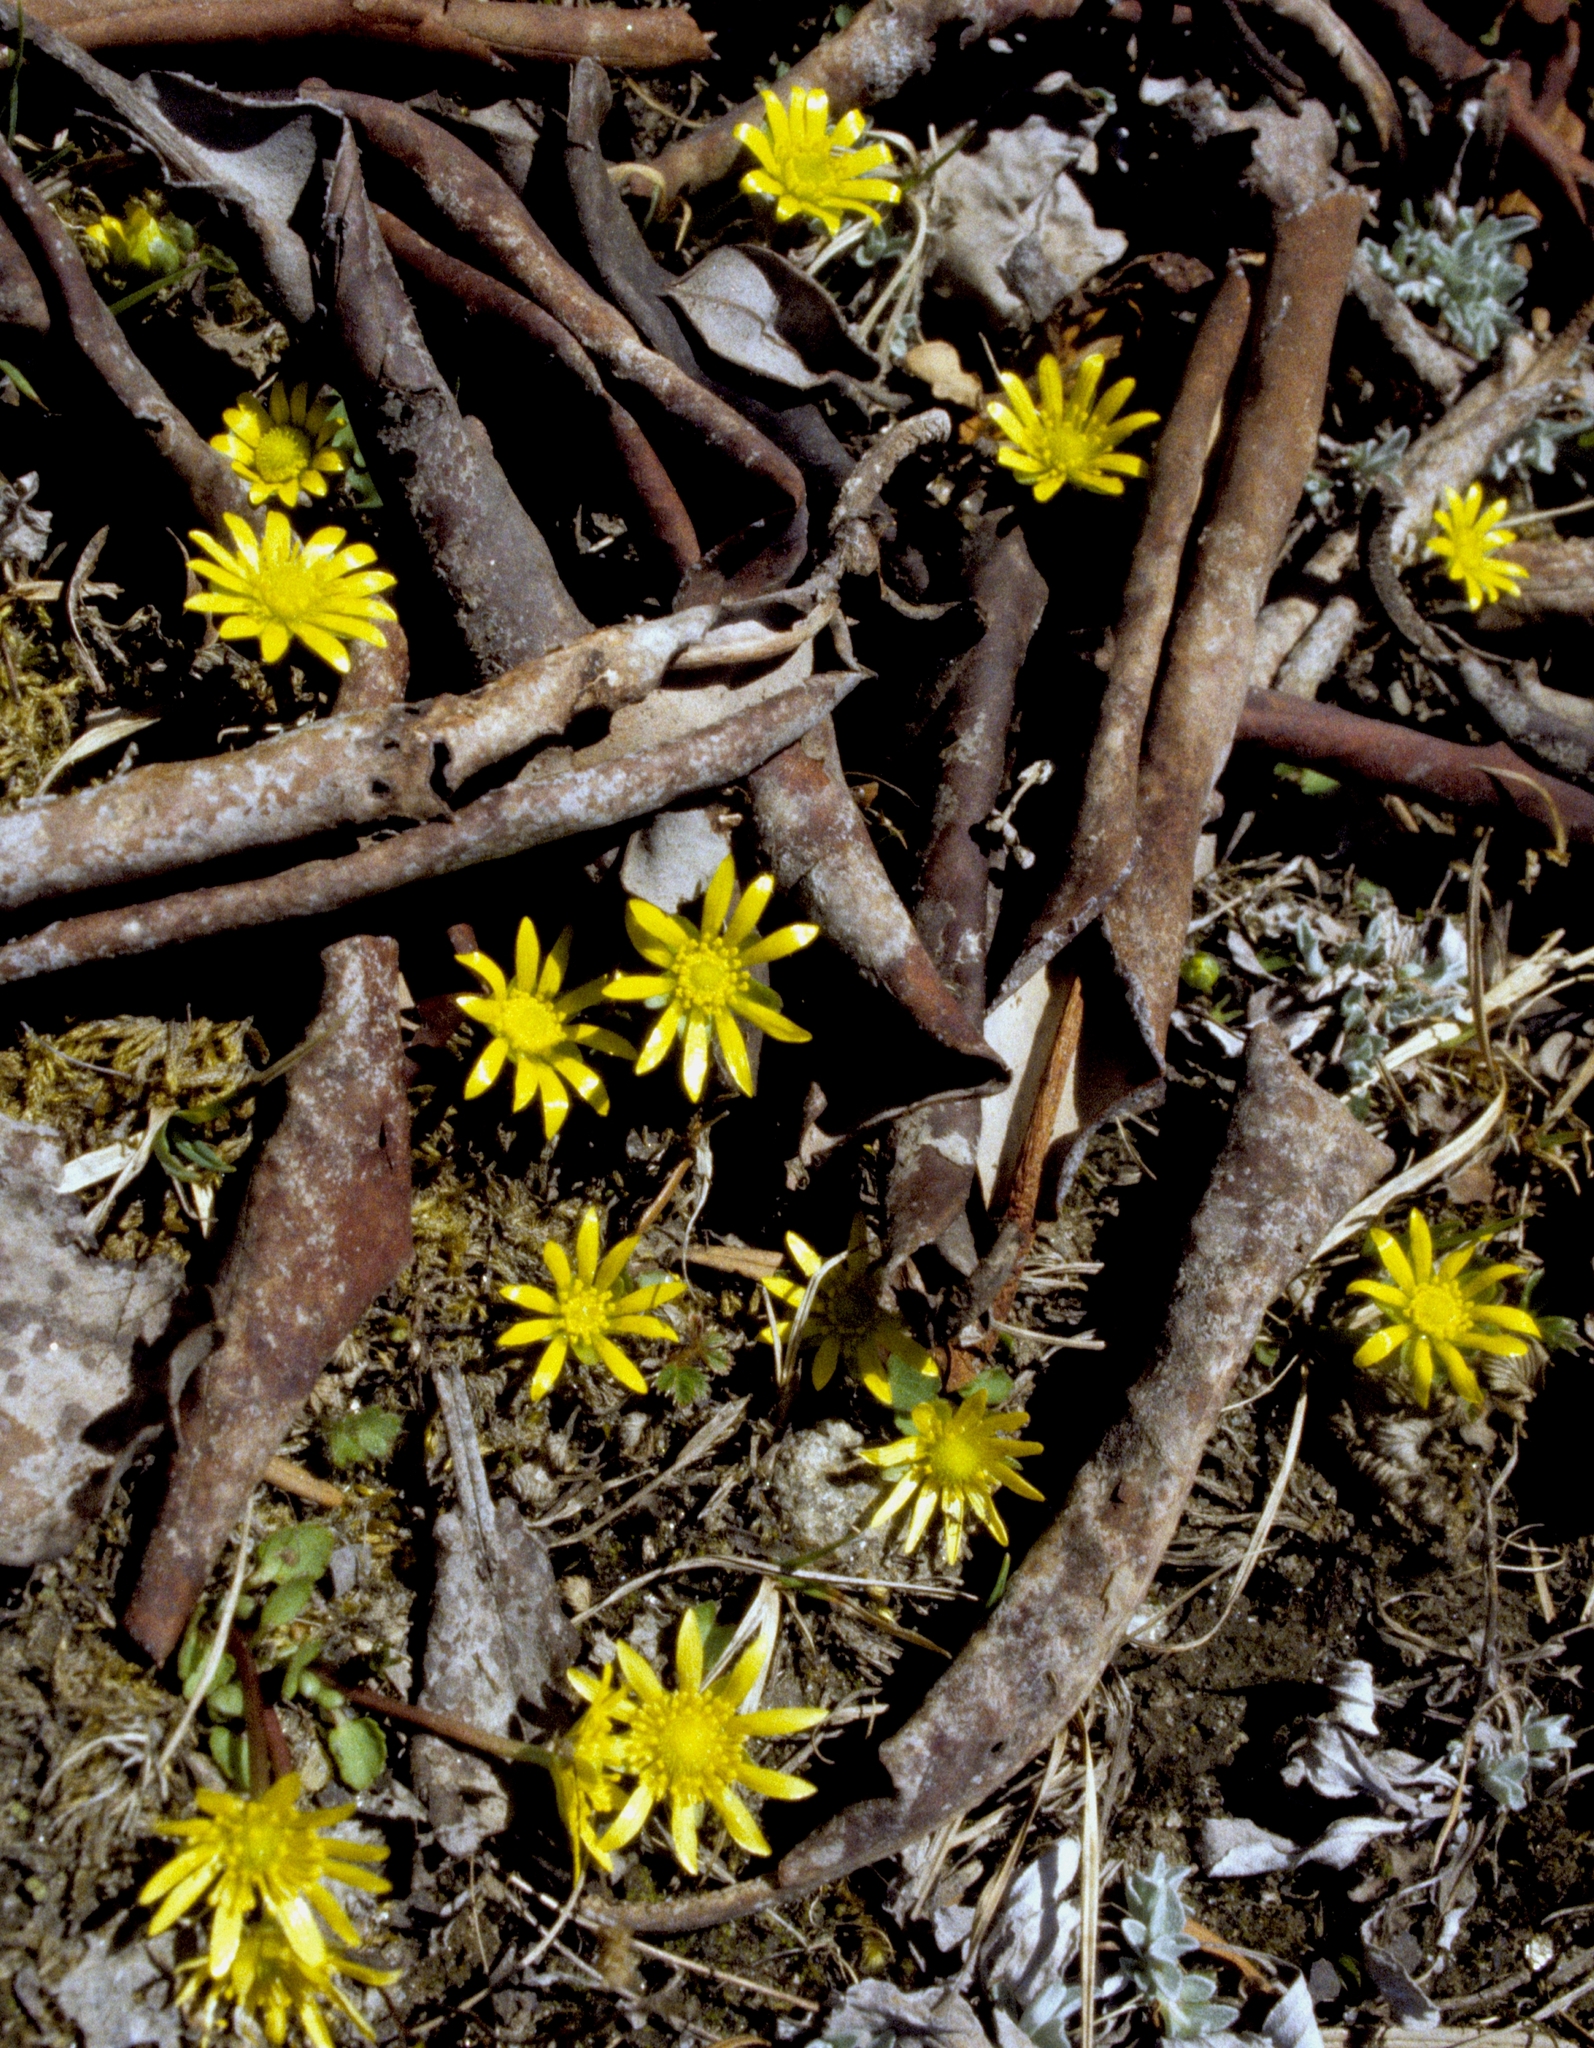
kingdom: Plantae
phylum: Tracheophyta
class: Magnoliopsida
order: Ranunculales
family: Ranunculaceae
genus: Oxygraphis
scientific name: Oxygraphis endlicheri
